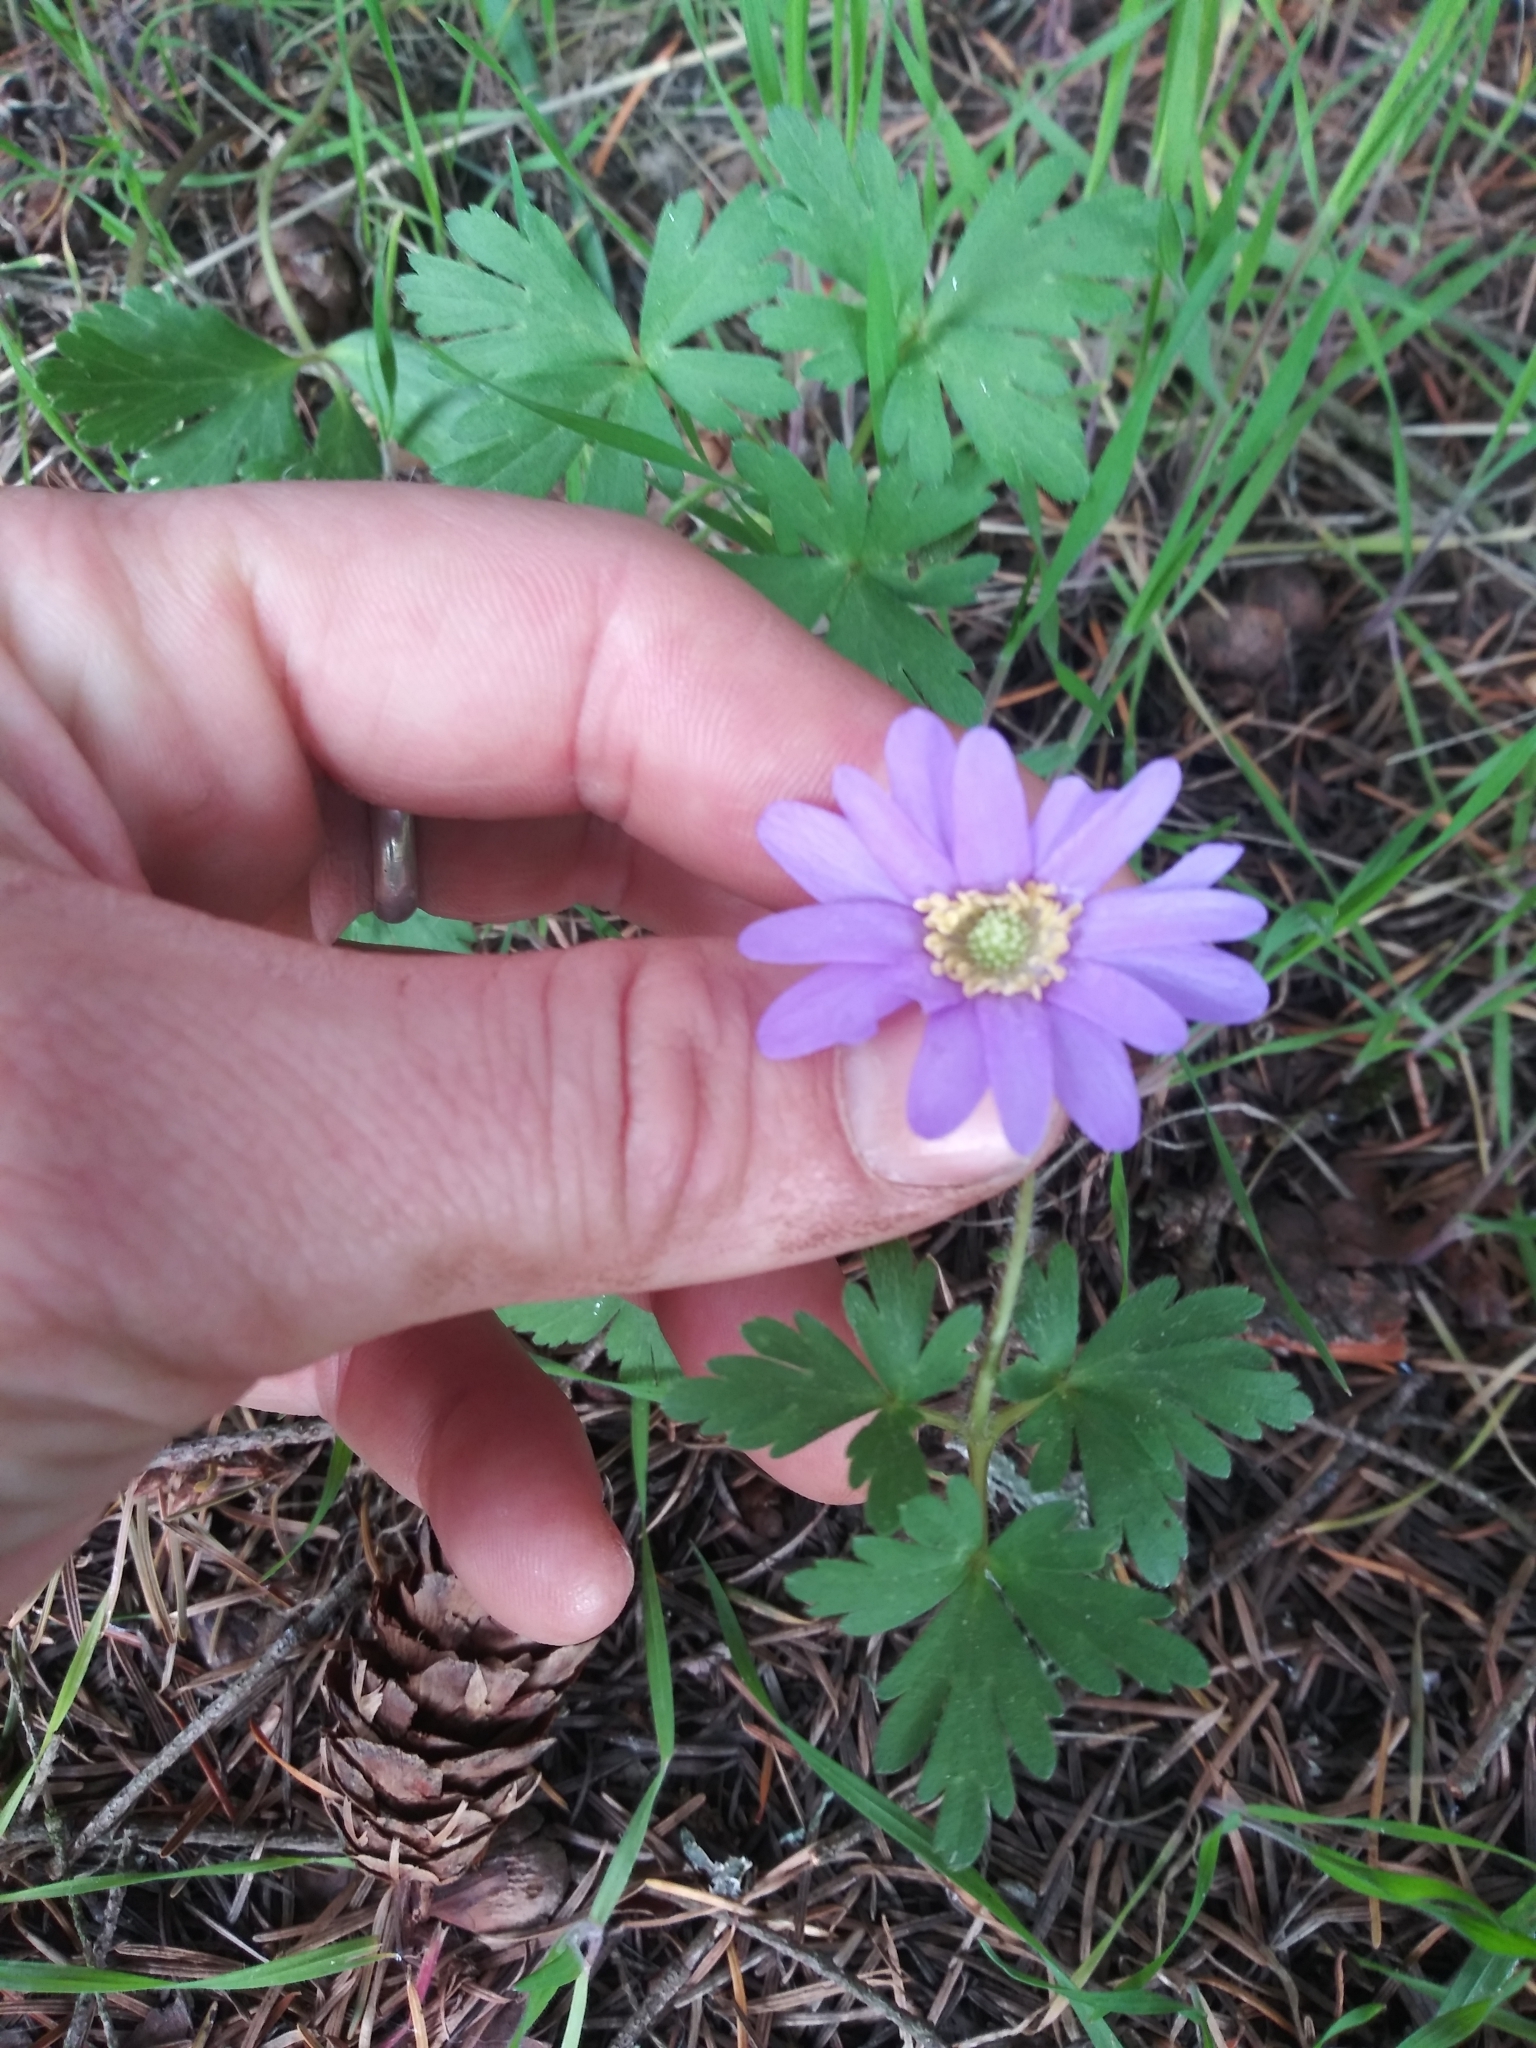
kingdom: Plantae
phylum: Tracheophyta
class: Magnoliopsida
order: Ranunculales
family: Ranunculaceae
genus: Anemone
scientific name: Anemone blanda
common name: Balkan anemone
